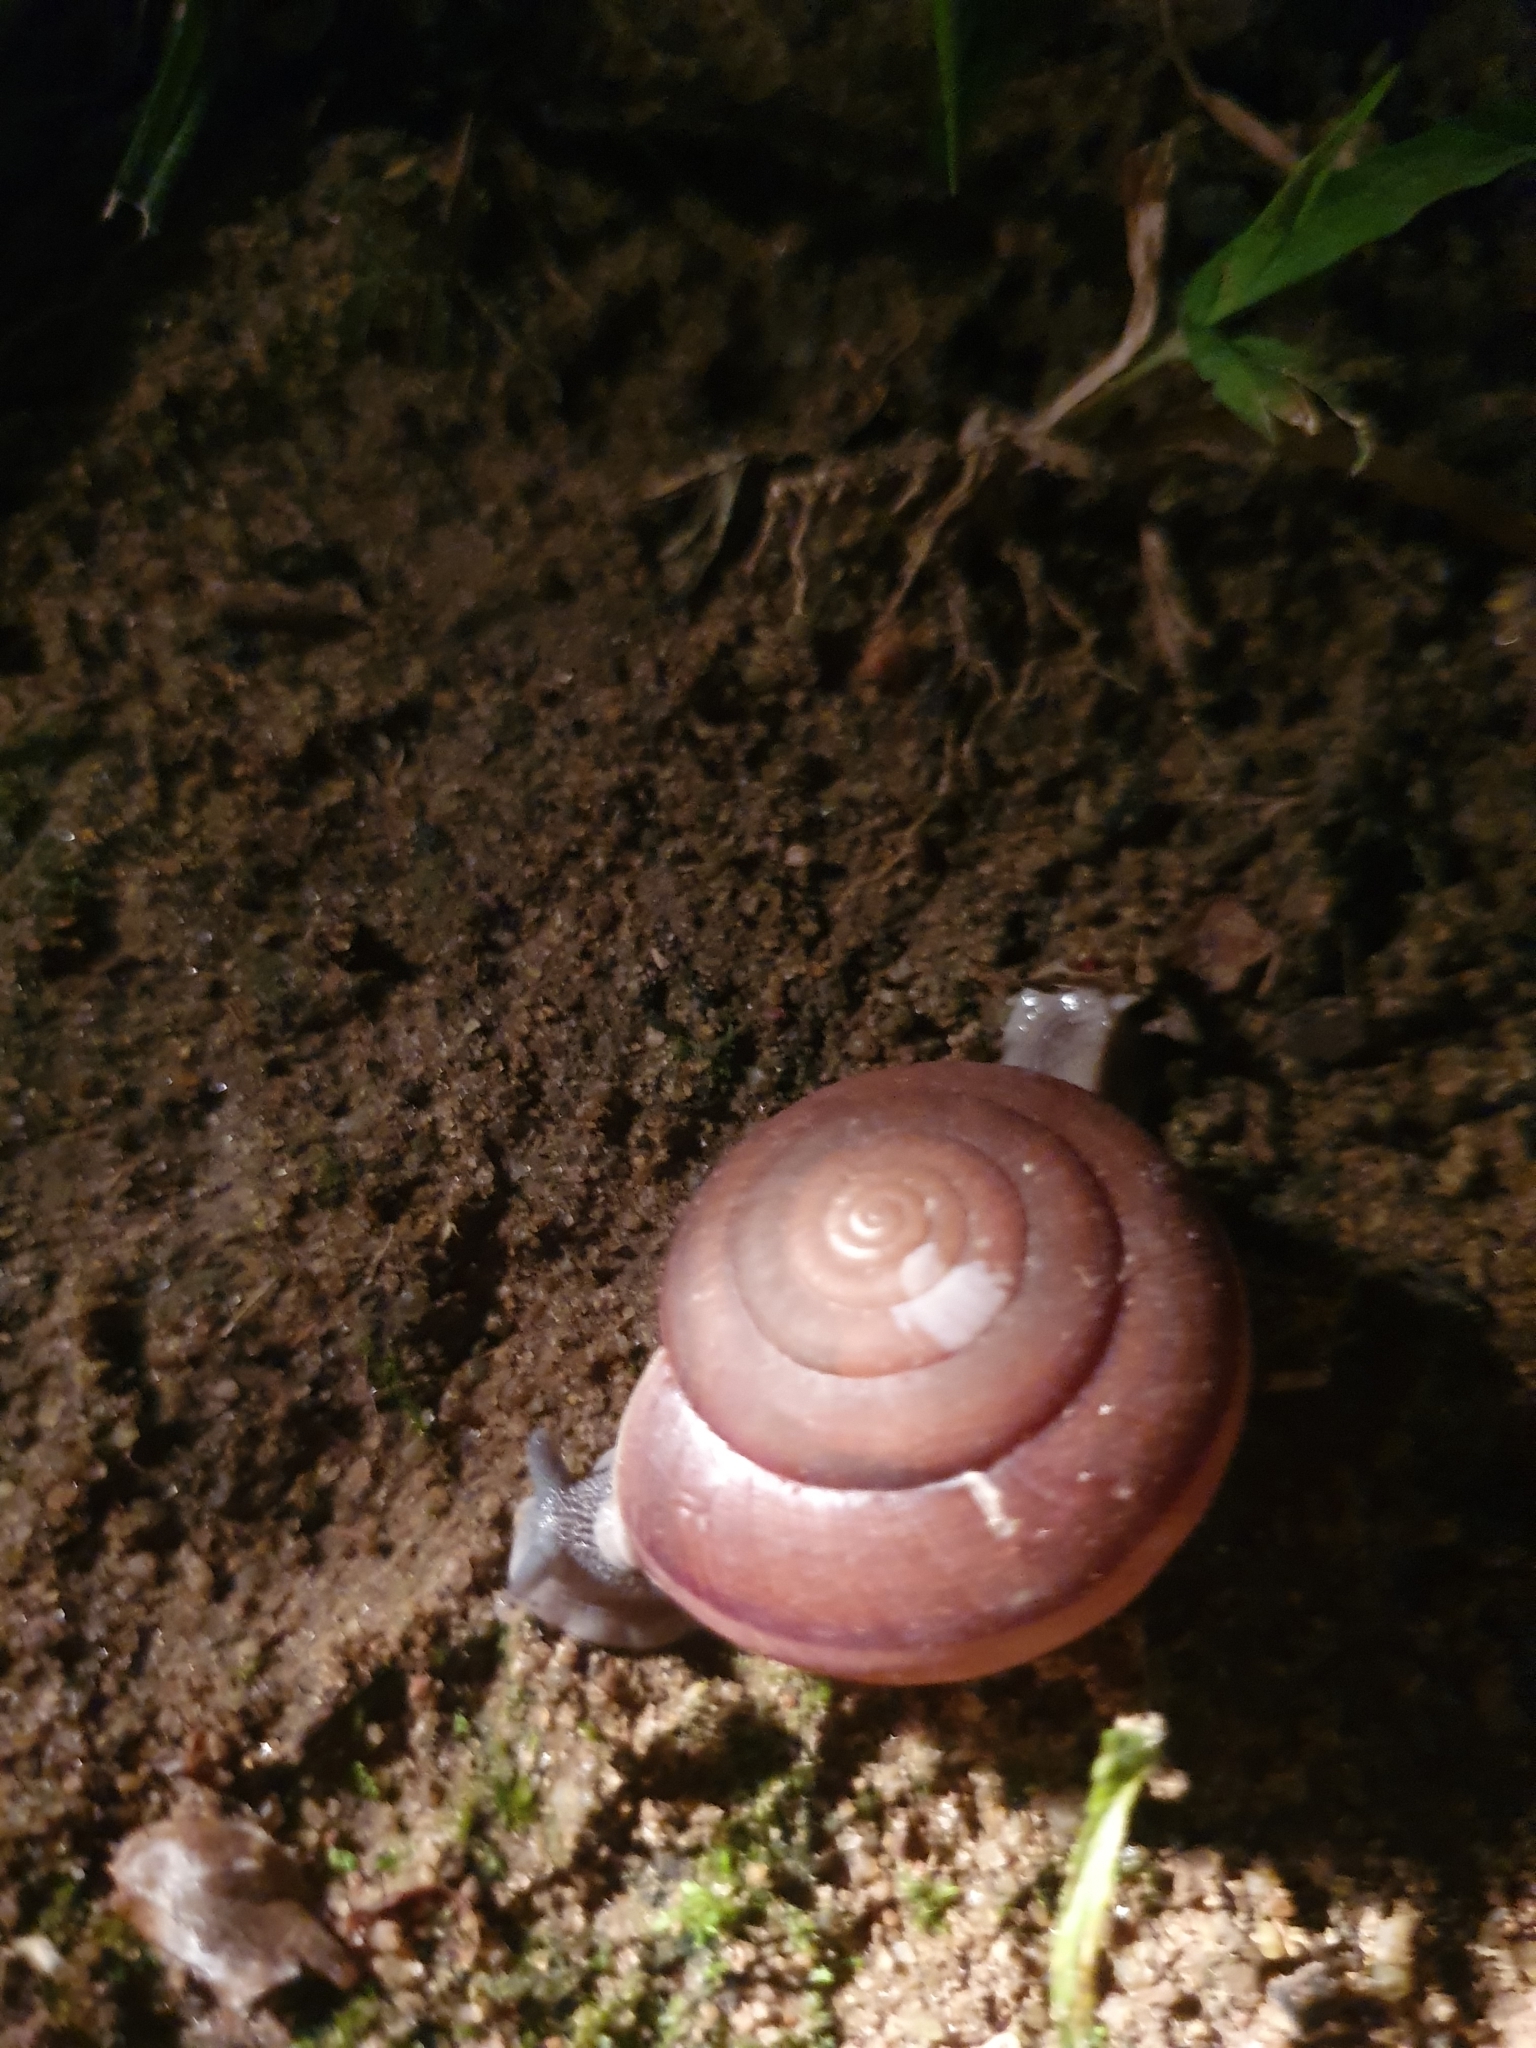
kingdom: Animalia
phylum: Mollusca
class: Gastropoda
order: Stylommatophora
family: Ariophantidae
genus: Sarika
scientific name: Sarika siamensis
